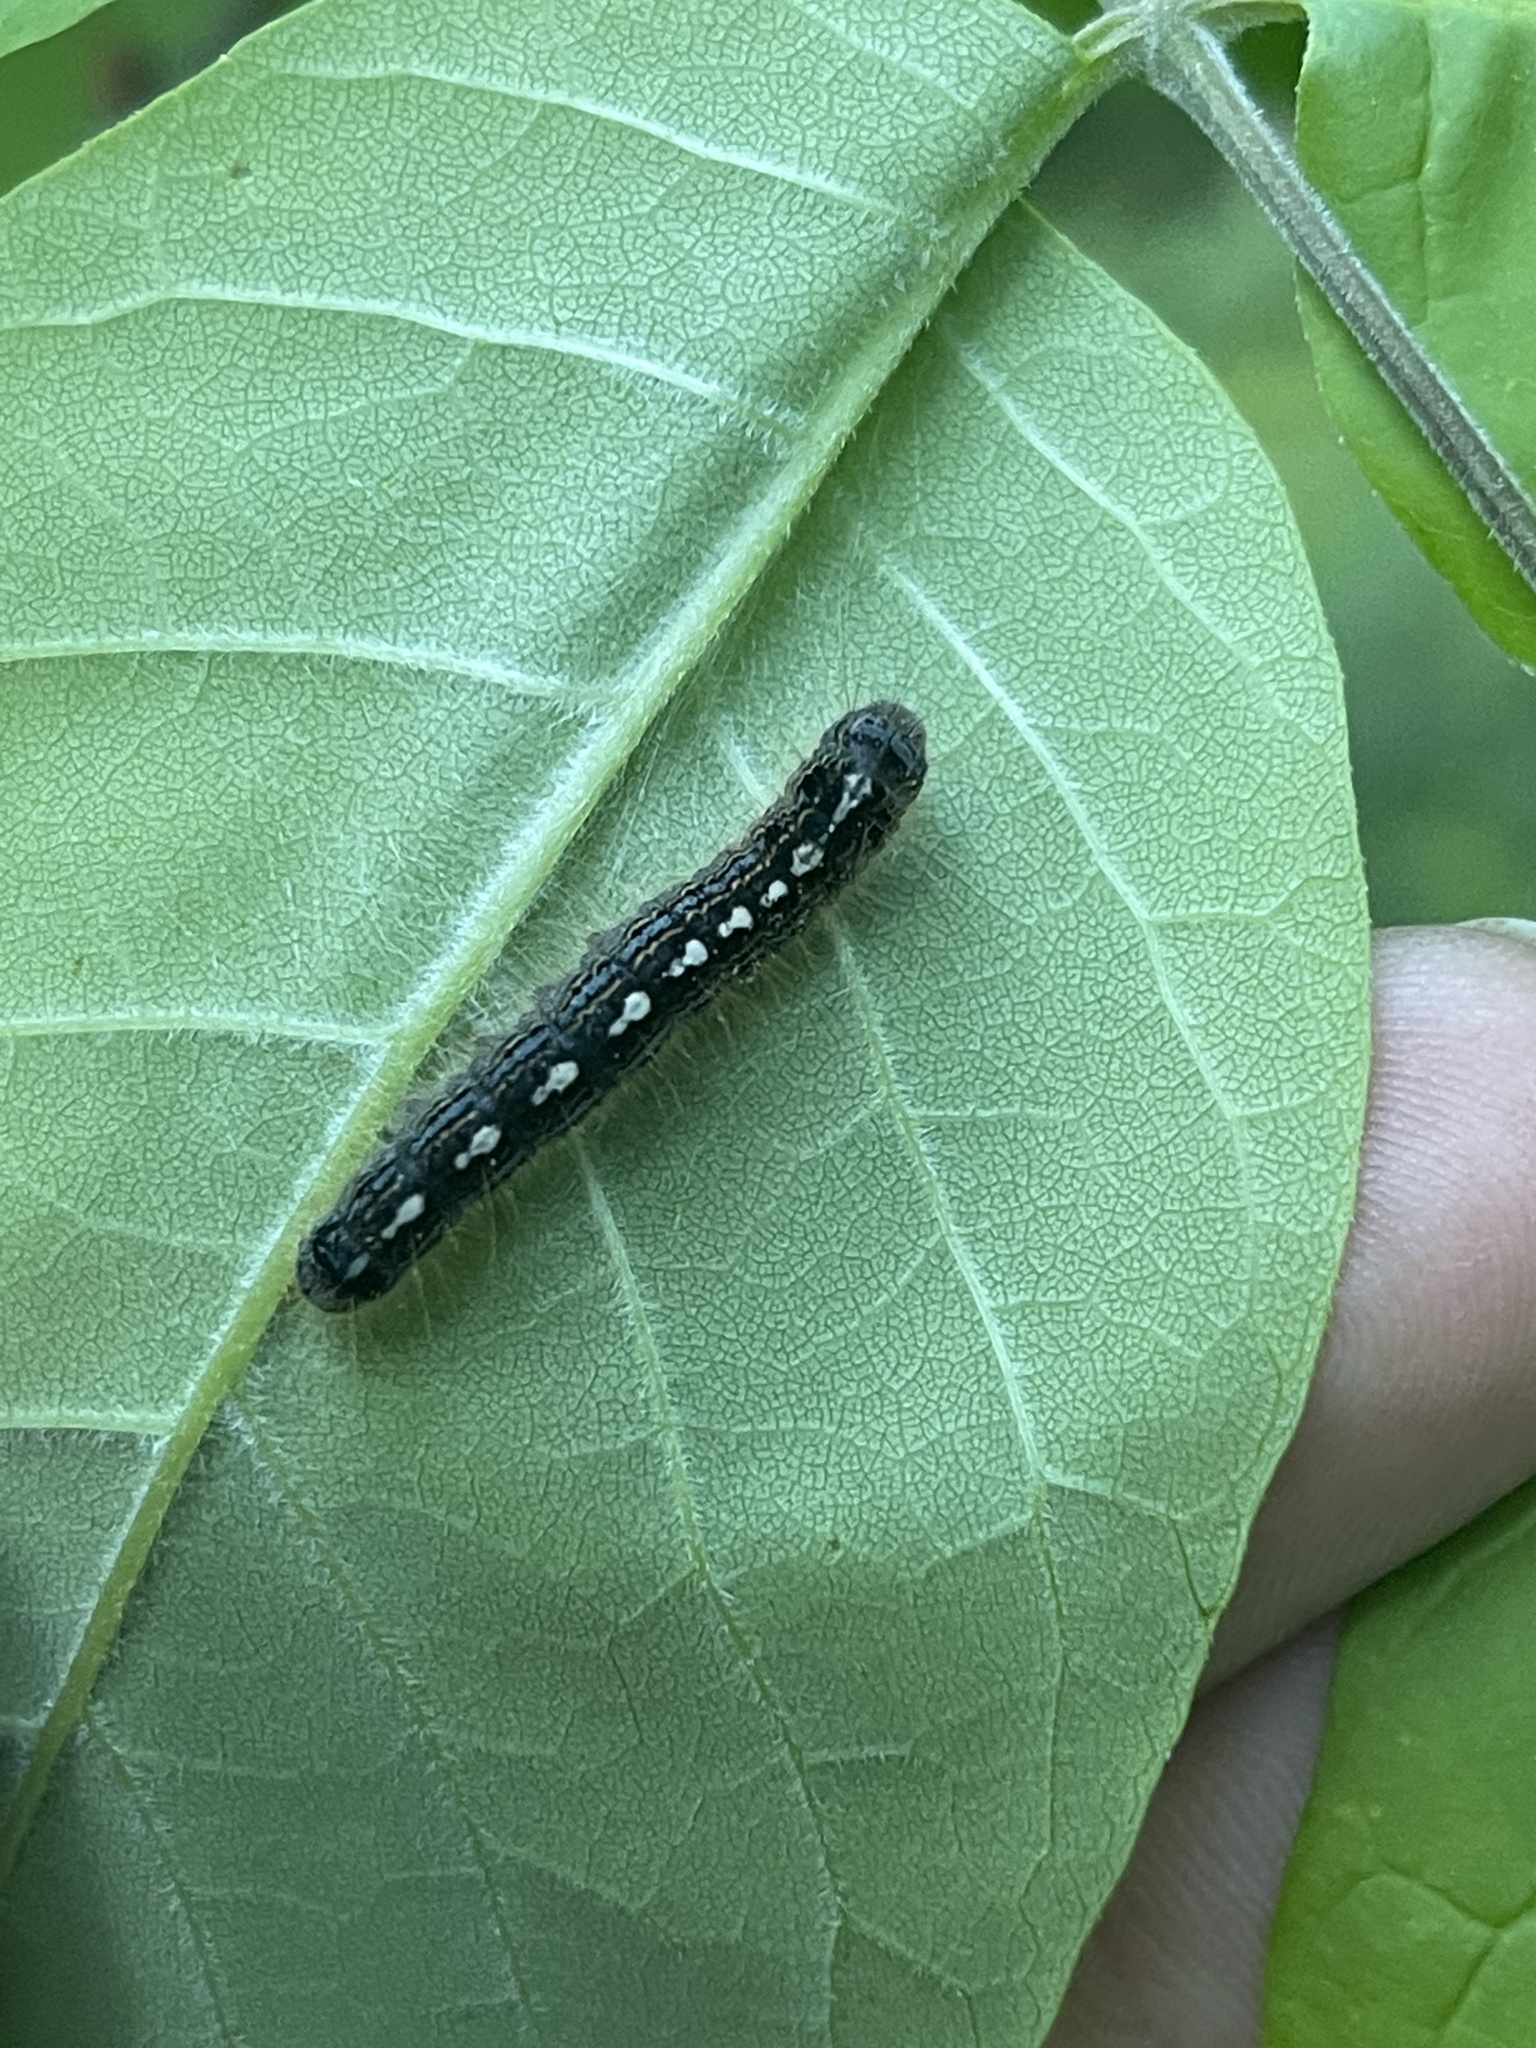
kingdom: Animalia
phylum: Arthropoda
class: Insecta
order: Lepidoptera
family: Lasiocampidae
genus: Malacosoma
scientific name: Malacosoma disstria
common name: Forest tent caterpillar
